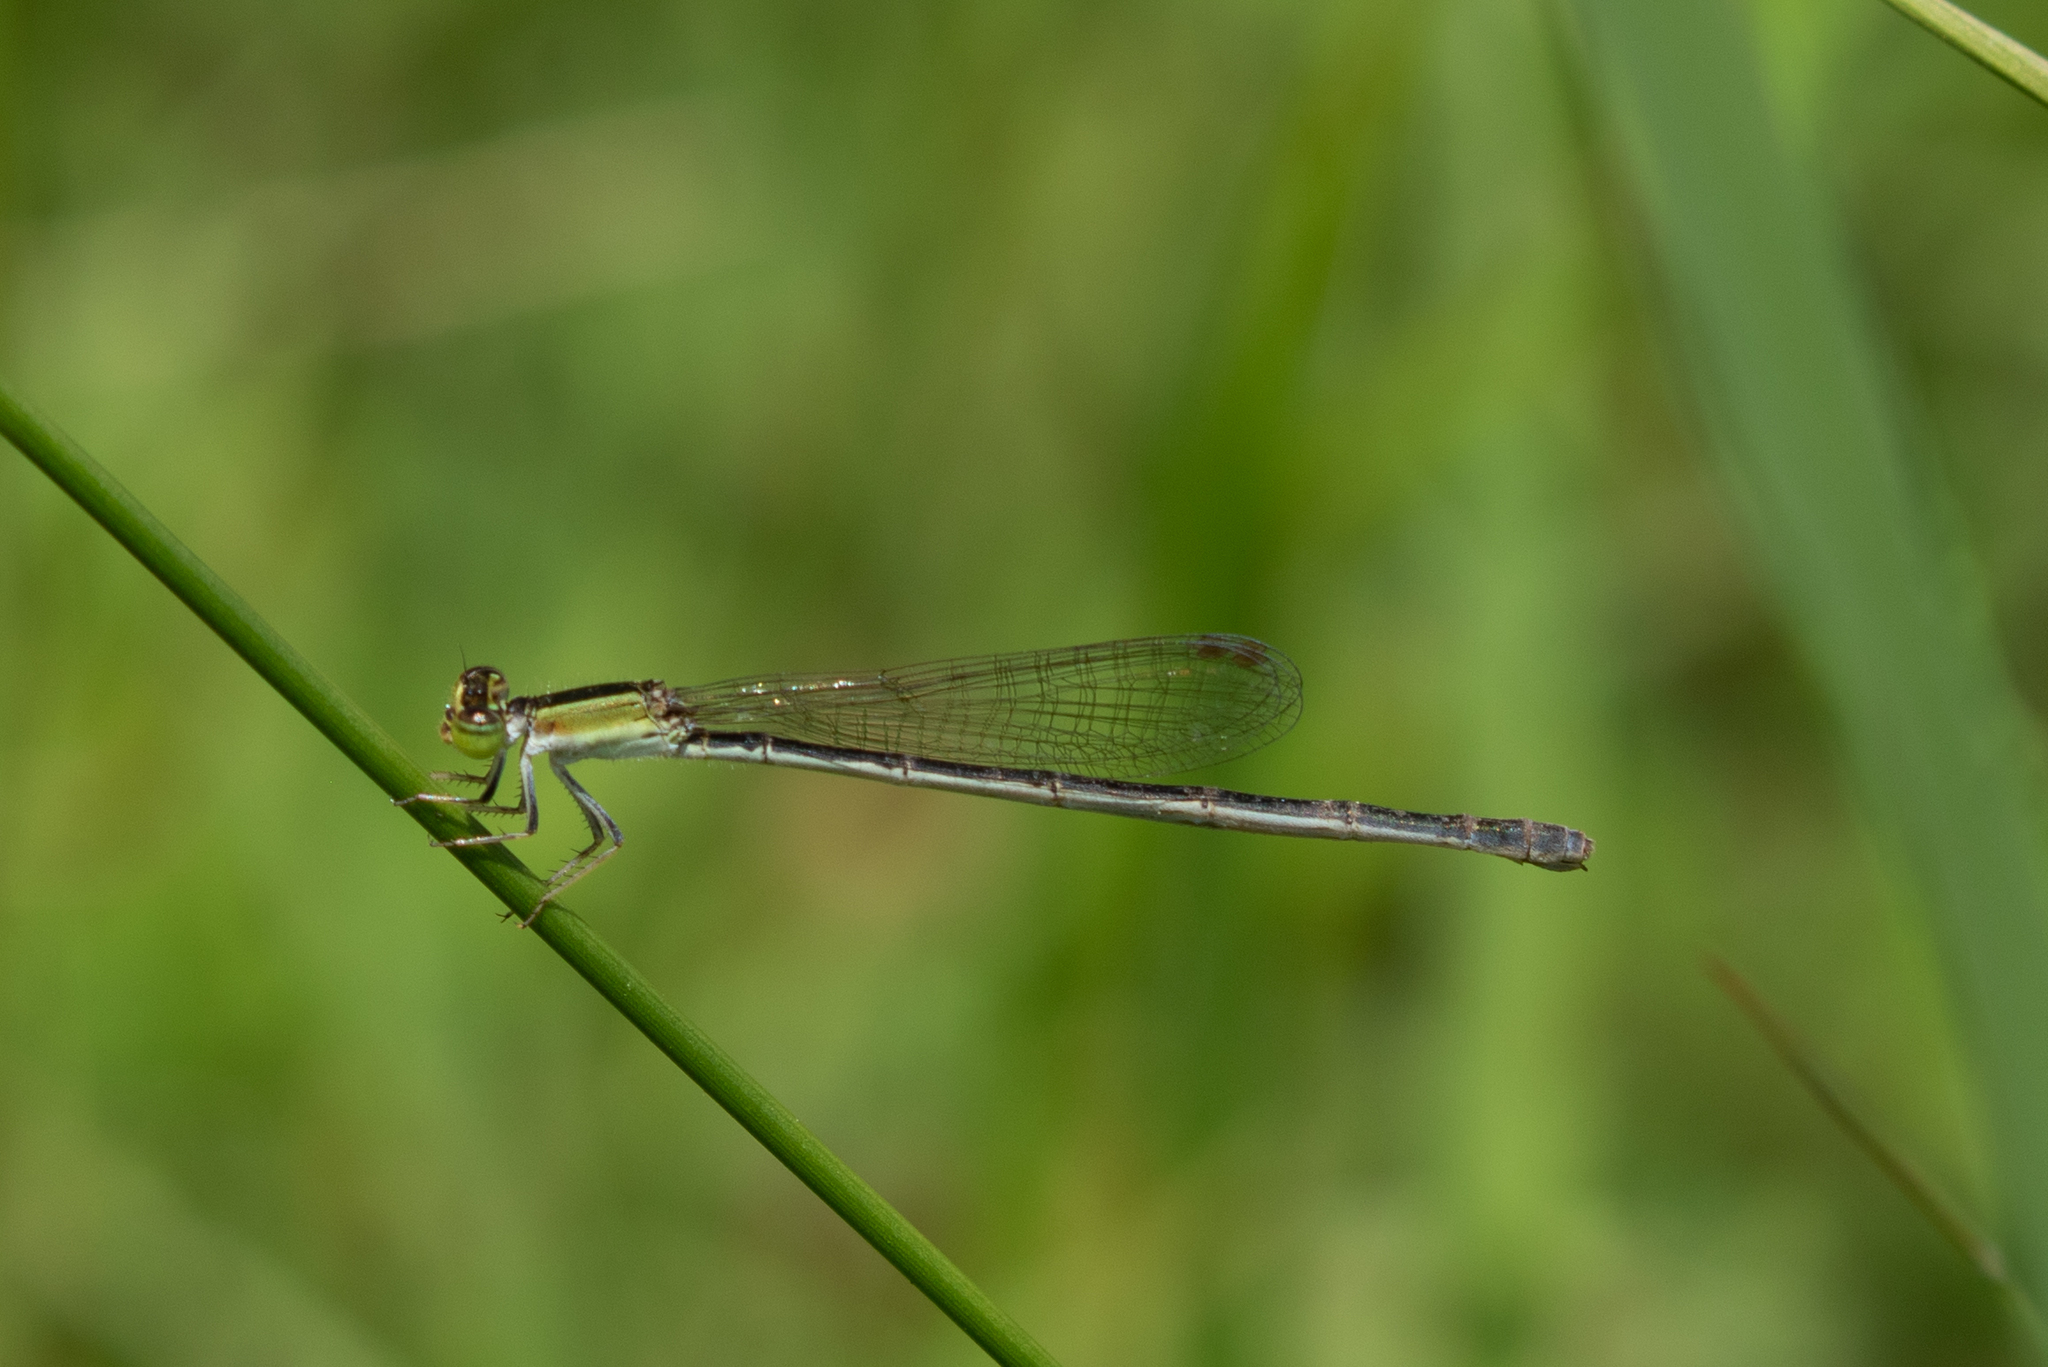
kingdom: Animalia
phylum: Arthropoda
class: Insecta
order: Odonata
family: Coenagrionidae
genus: Ischnura
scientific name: Ischnura hastata
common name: Citrine forktail
